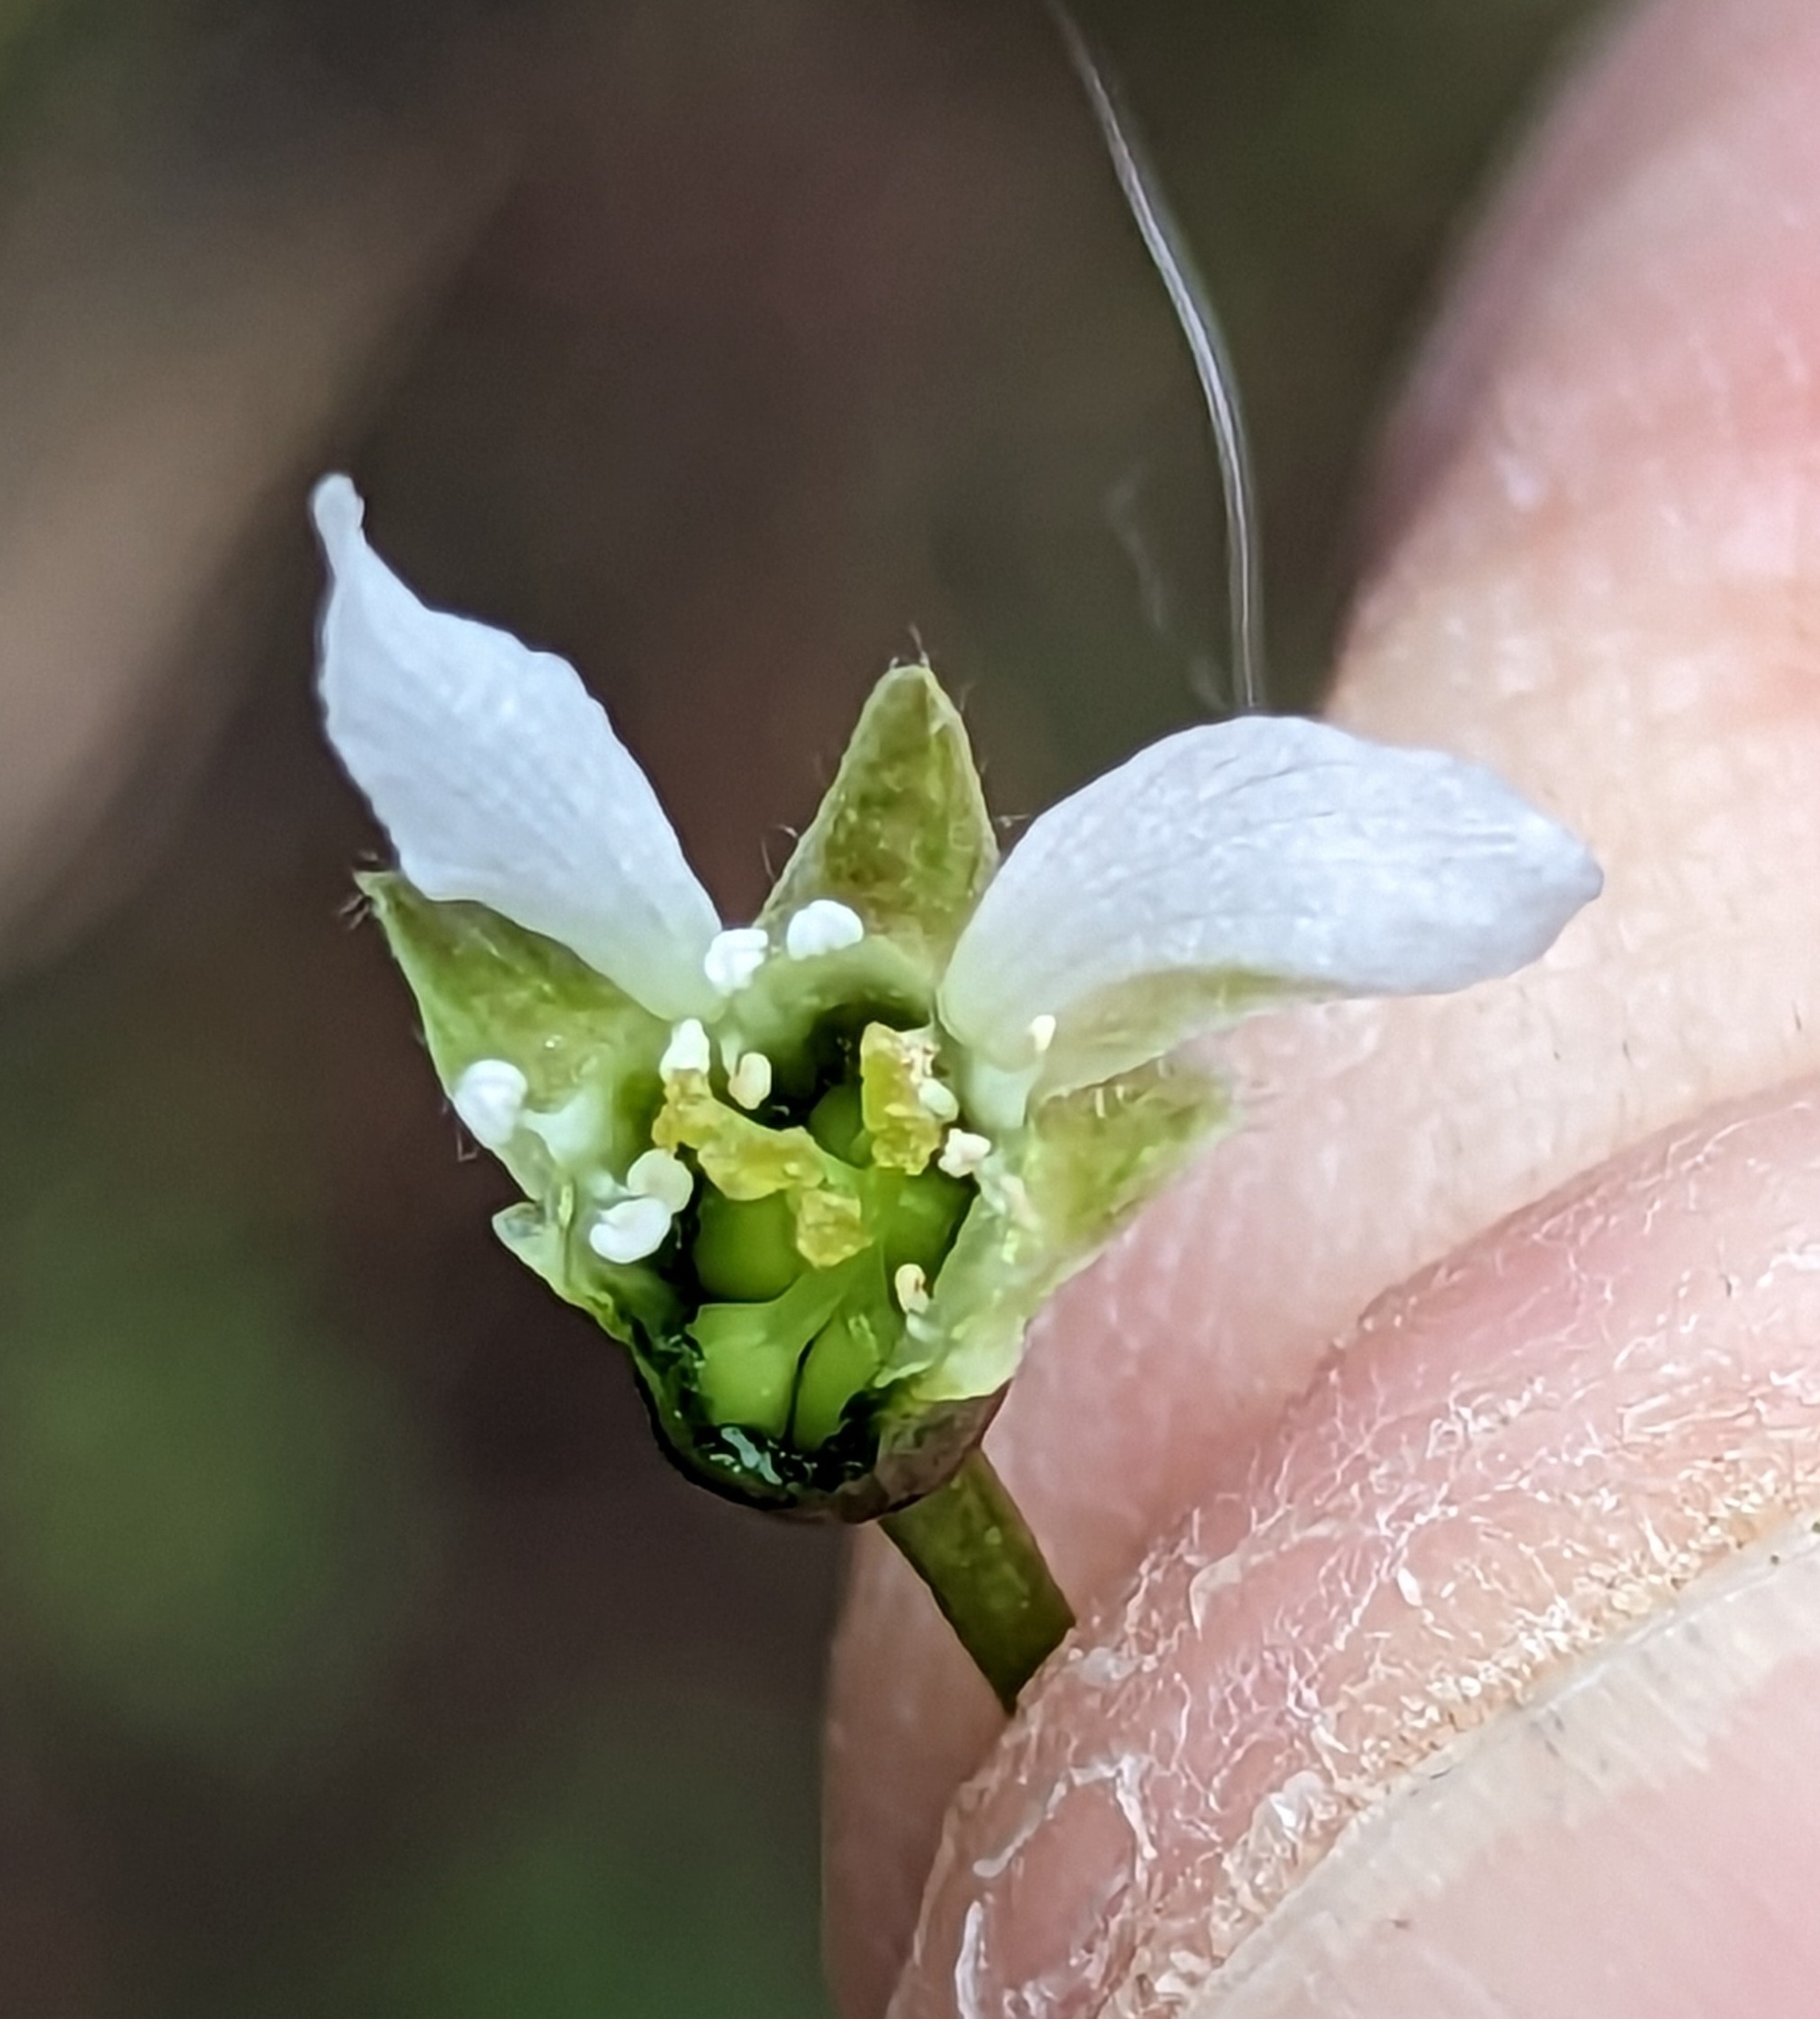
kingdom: Plantae
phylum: Tracheophyta
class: Magnoliopsida
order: Rosales
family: Rosaceae
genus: Oemleria
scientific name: Oemleria cerasiformis
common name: Osoberry
